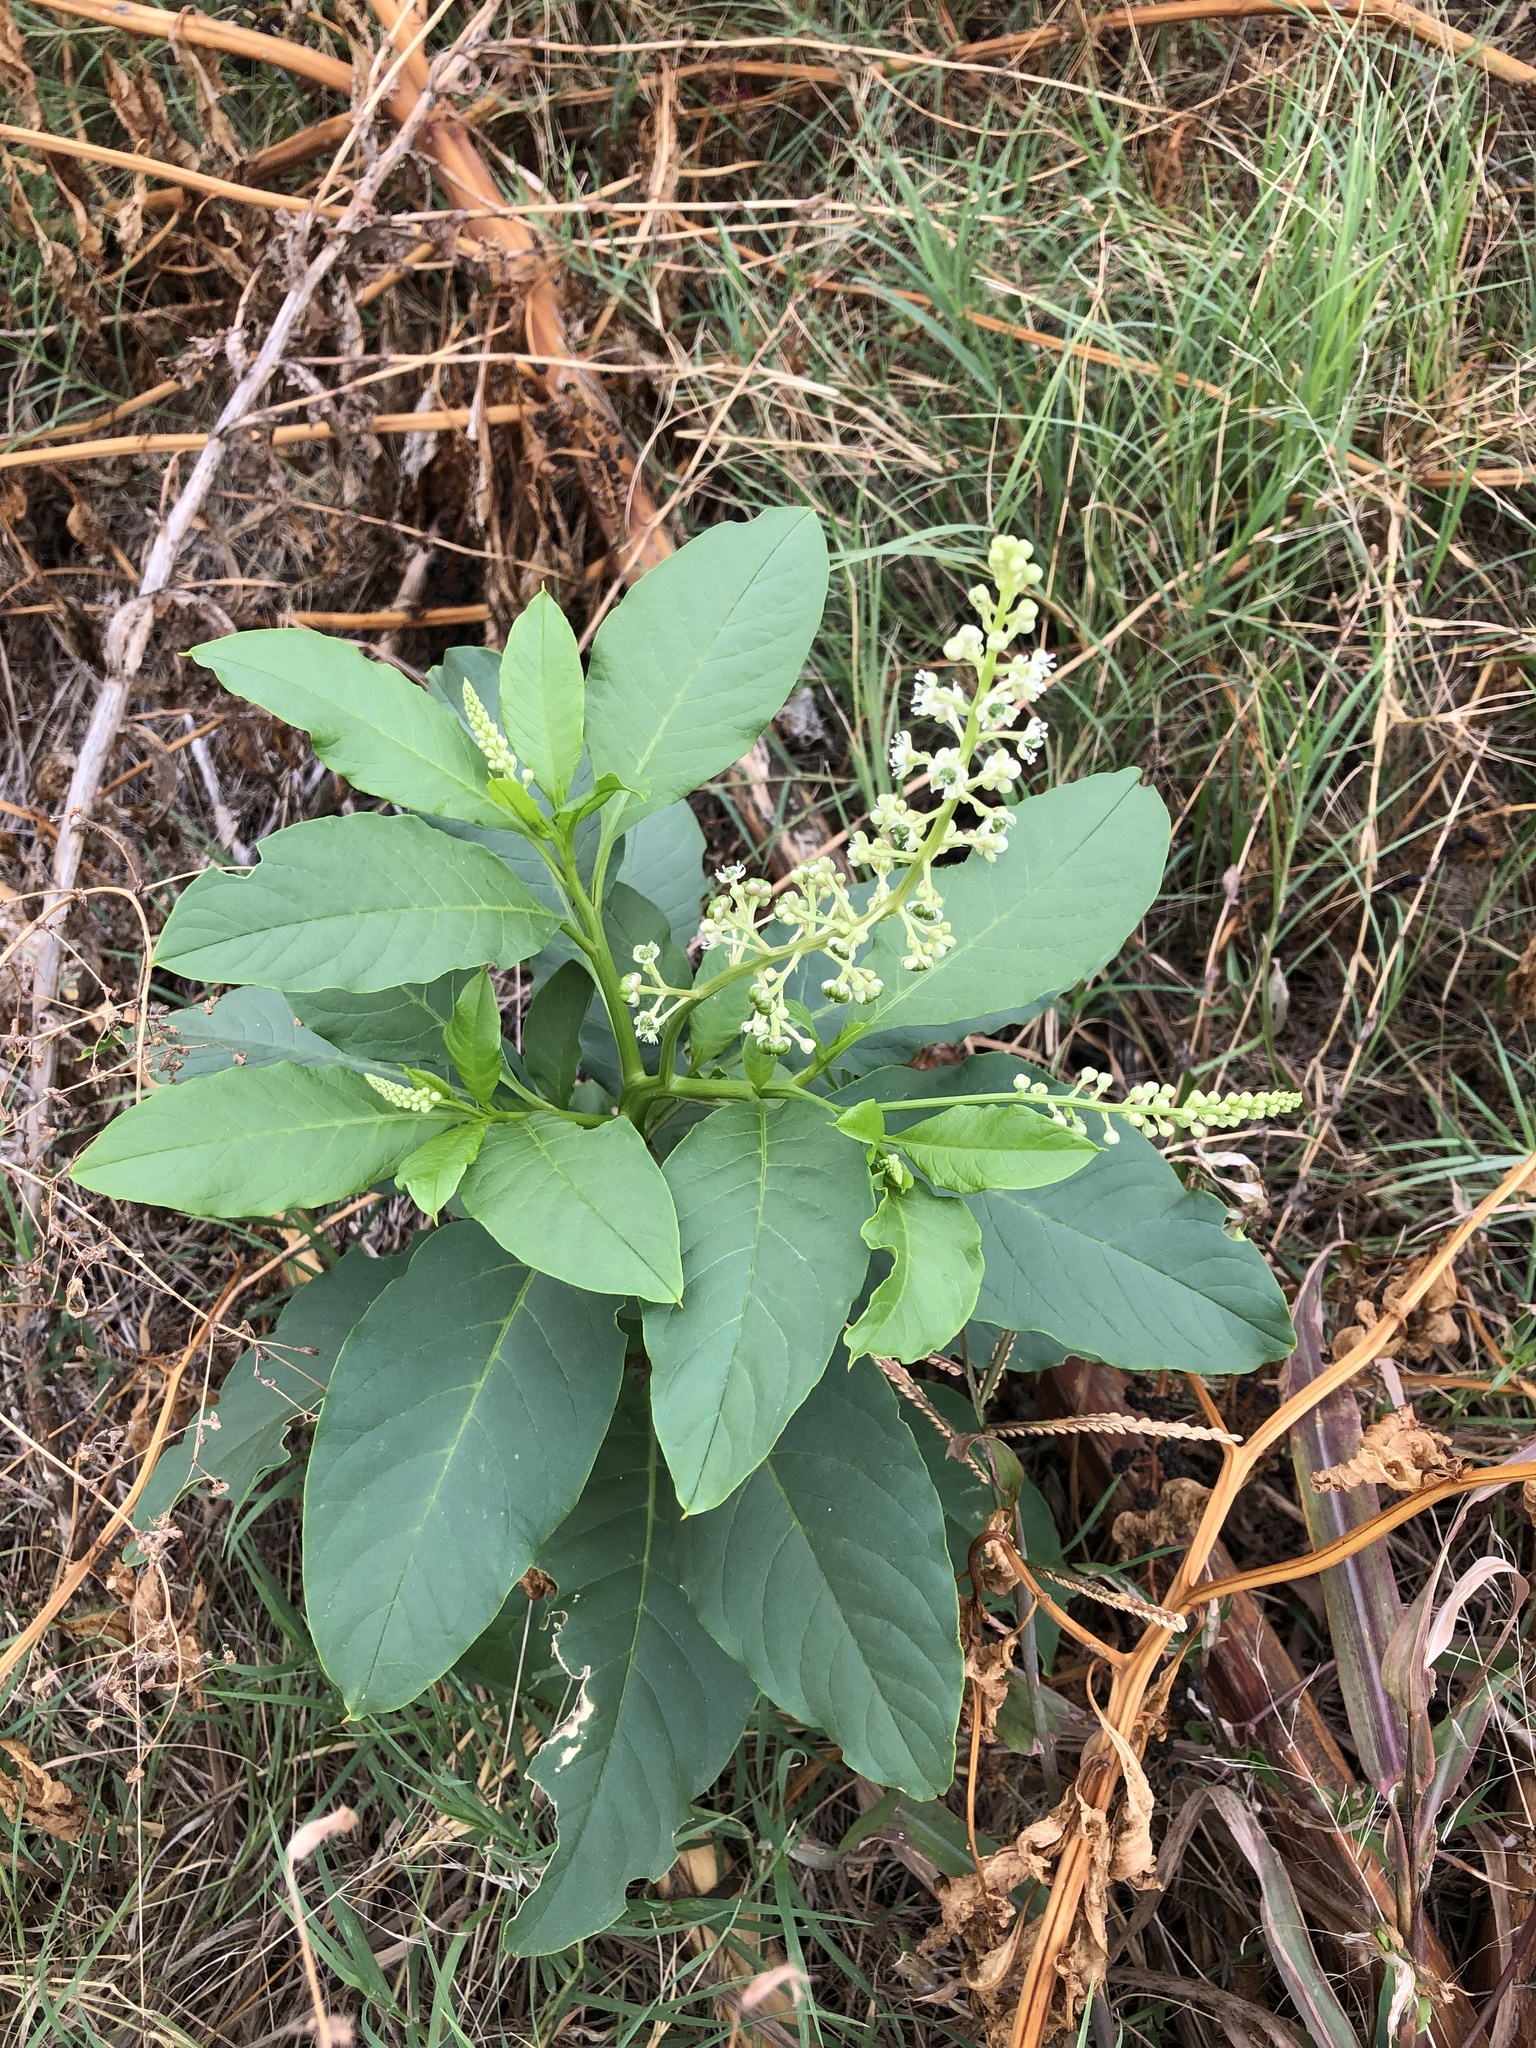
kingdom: Plantae
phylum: Tracheophyta
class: Magnoliopsida
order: Caryophyllales
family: Phytolaccaceae
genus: Phytolacca
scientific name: Phytolacca americana
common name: American pokeweed
